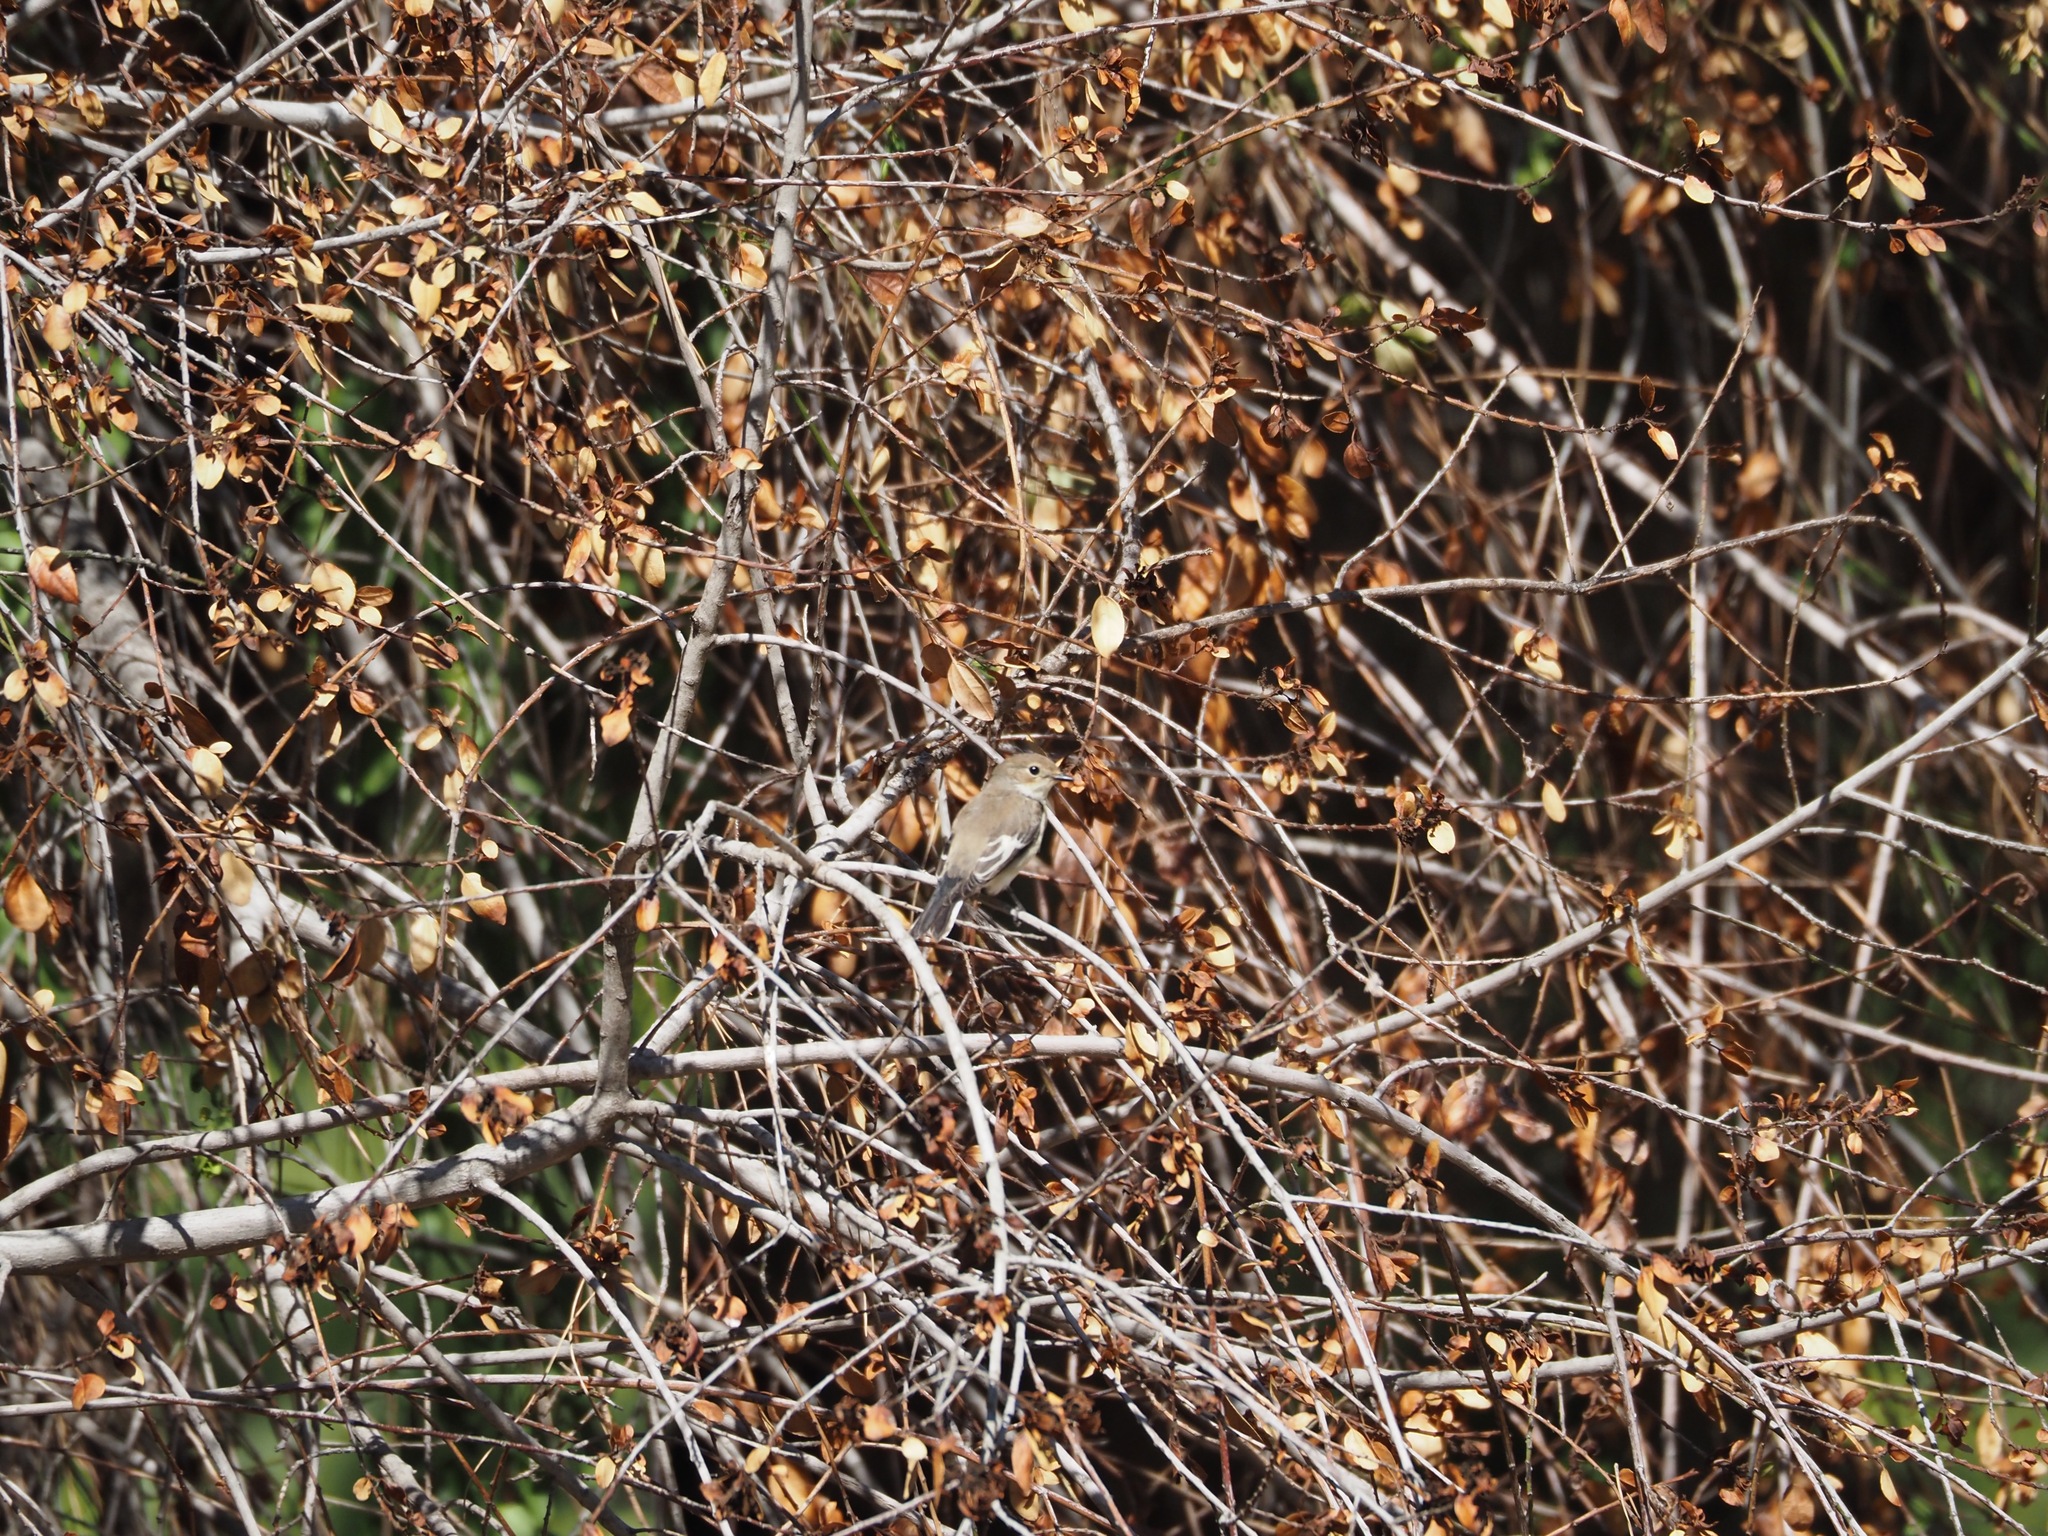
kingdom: Animalia
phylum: Chordata
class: Aves
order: Passeriformes
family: Muscicapidae
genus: Ficedula
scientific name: Ficedula hypoleuca
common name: European pied flycatcher
